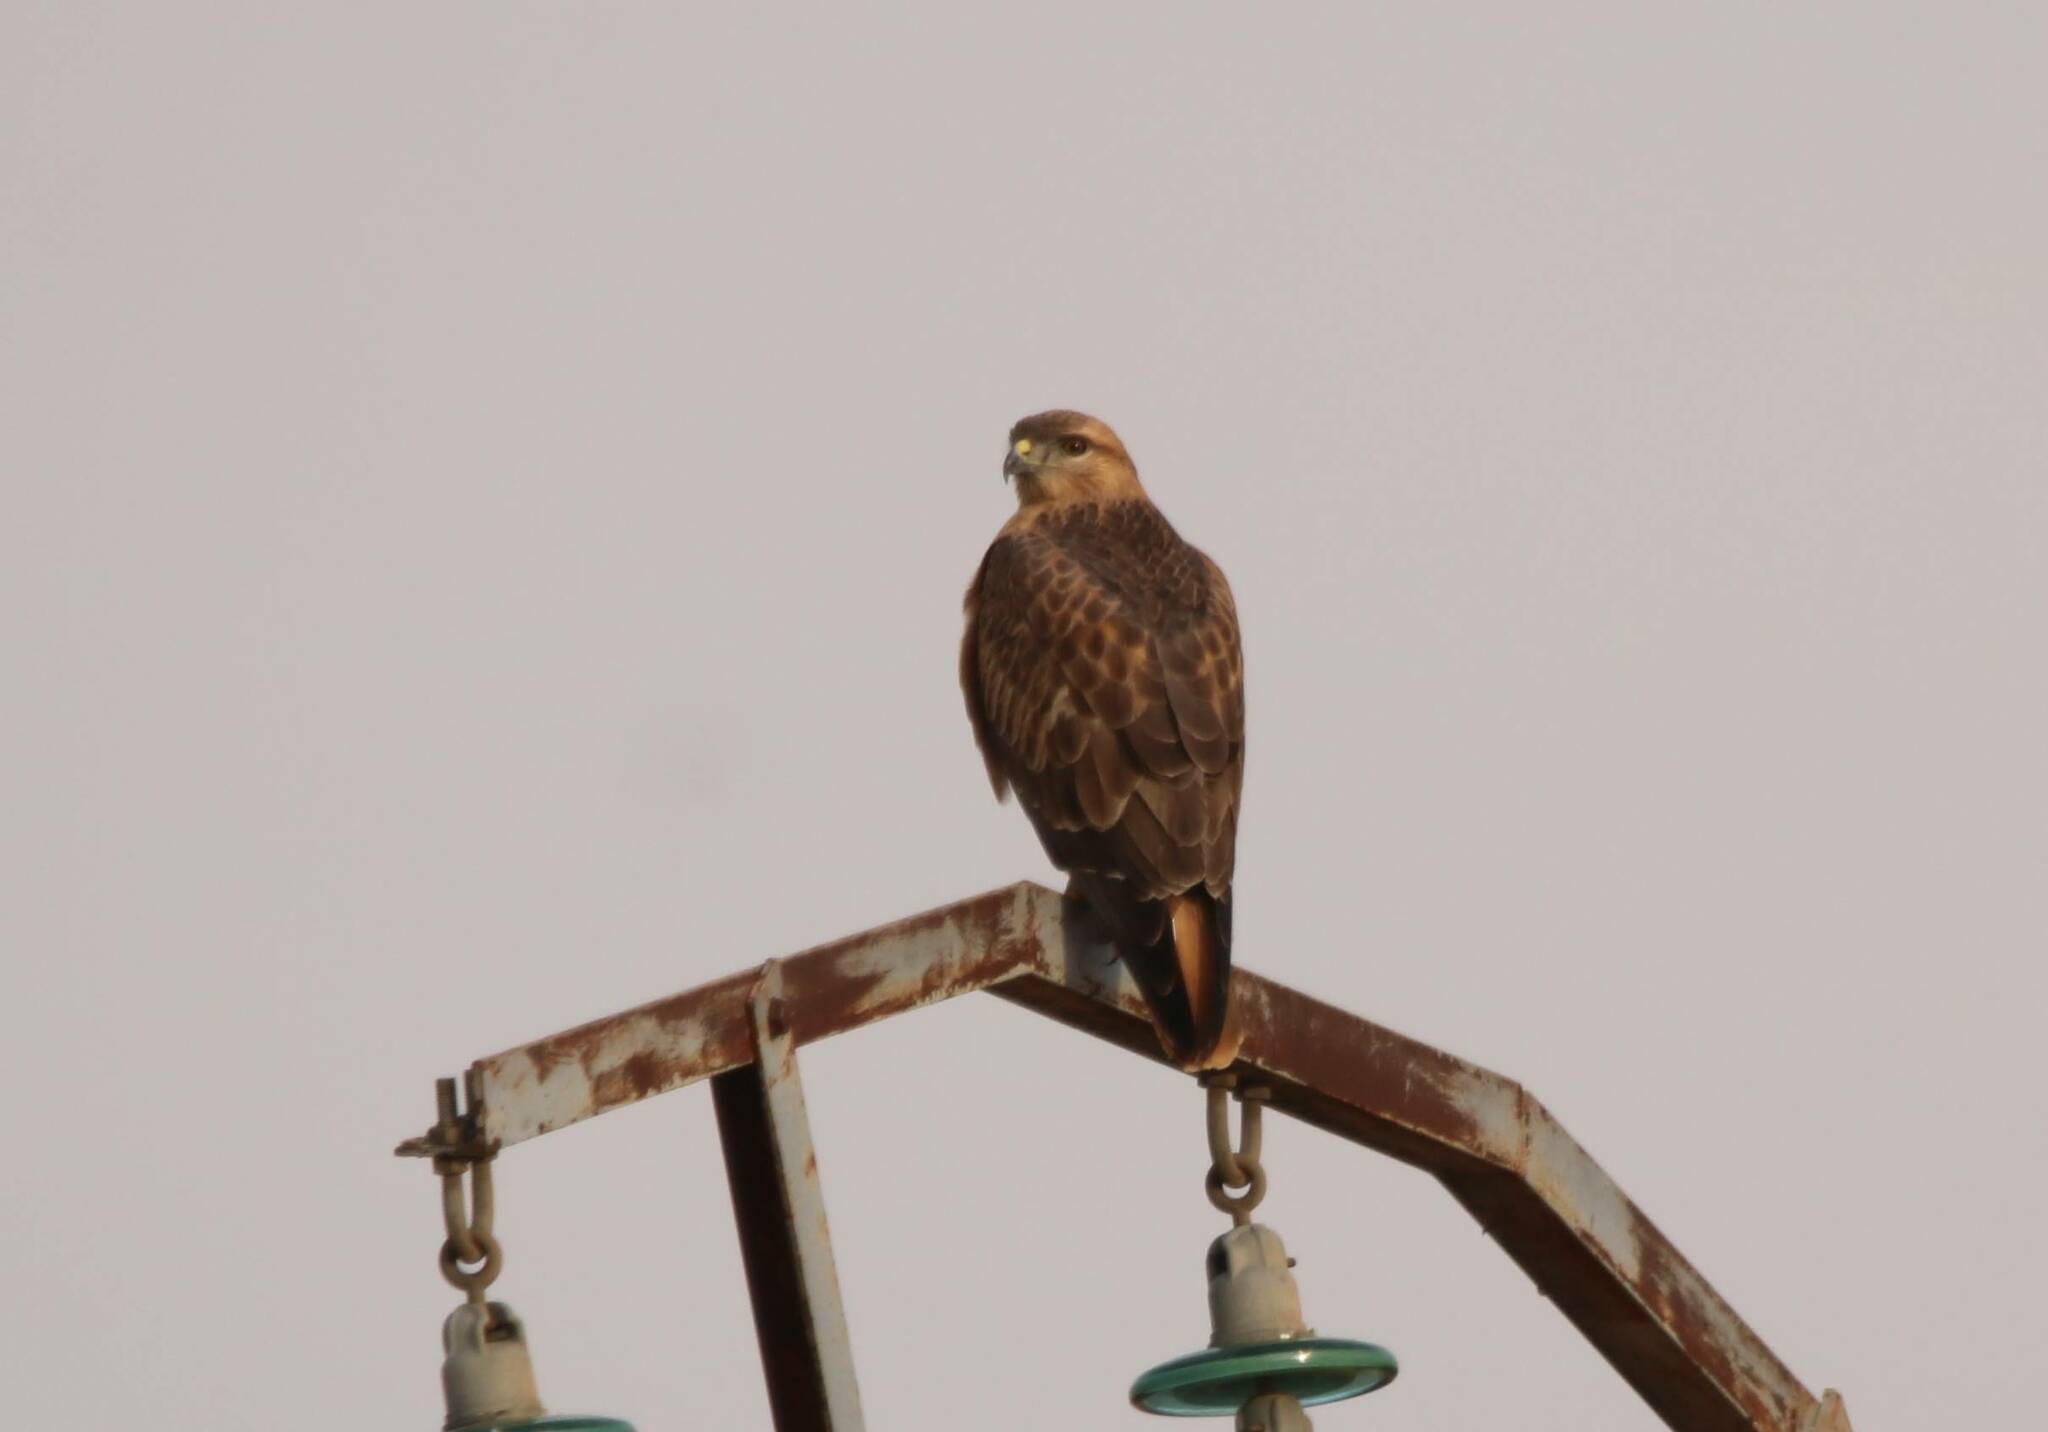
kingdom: Animalia
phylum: Chordata
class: Aves
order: Accipitriformes
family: Accipitridae
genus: Buteo
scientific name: Buteo rufinus
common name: Long-legged buzzard
